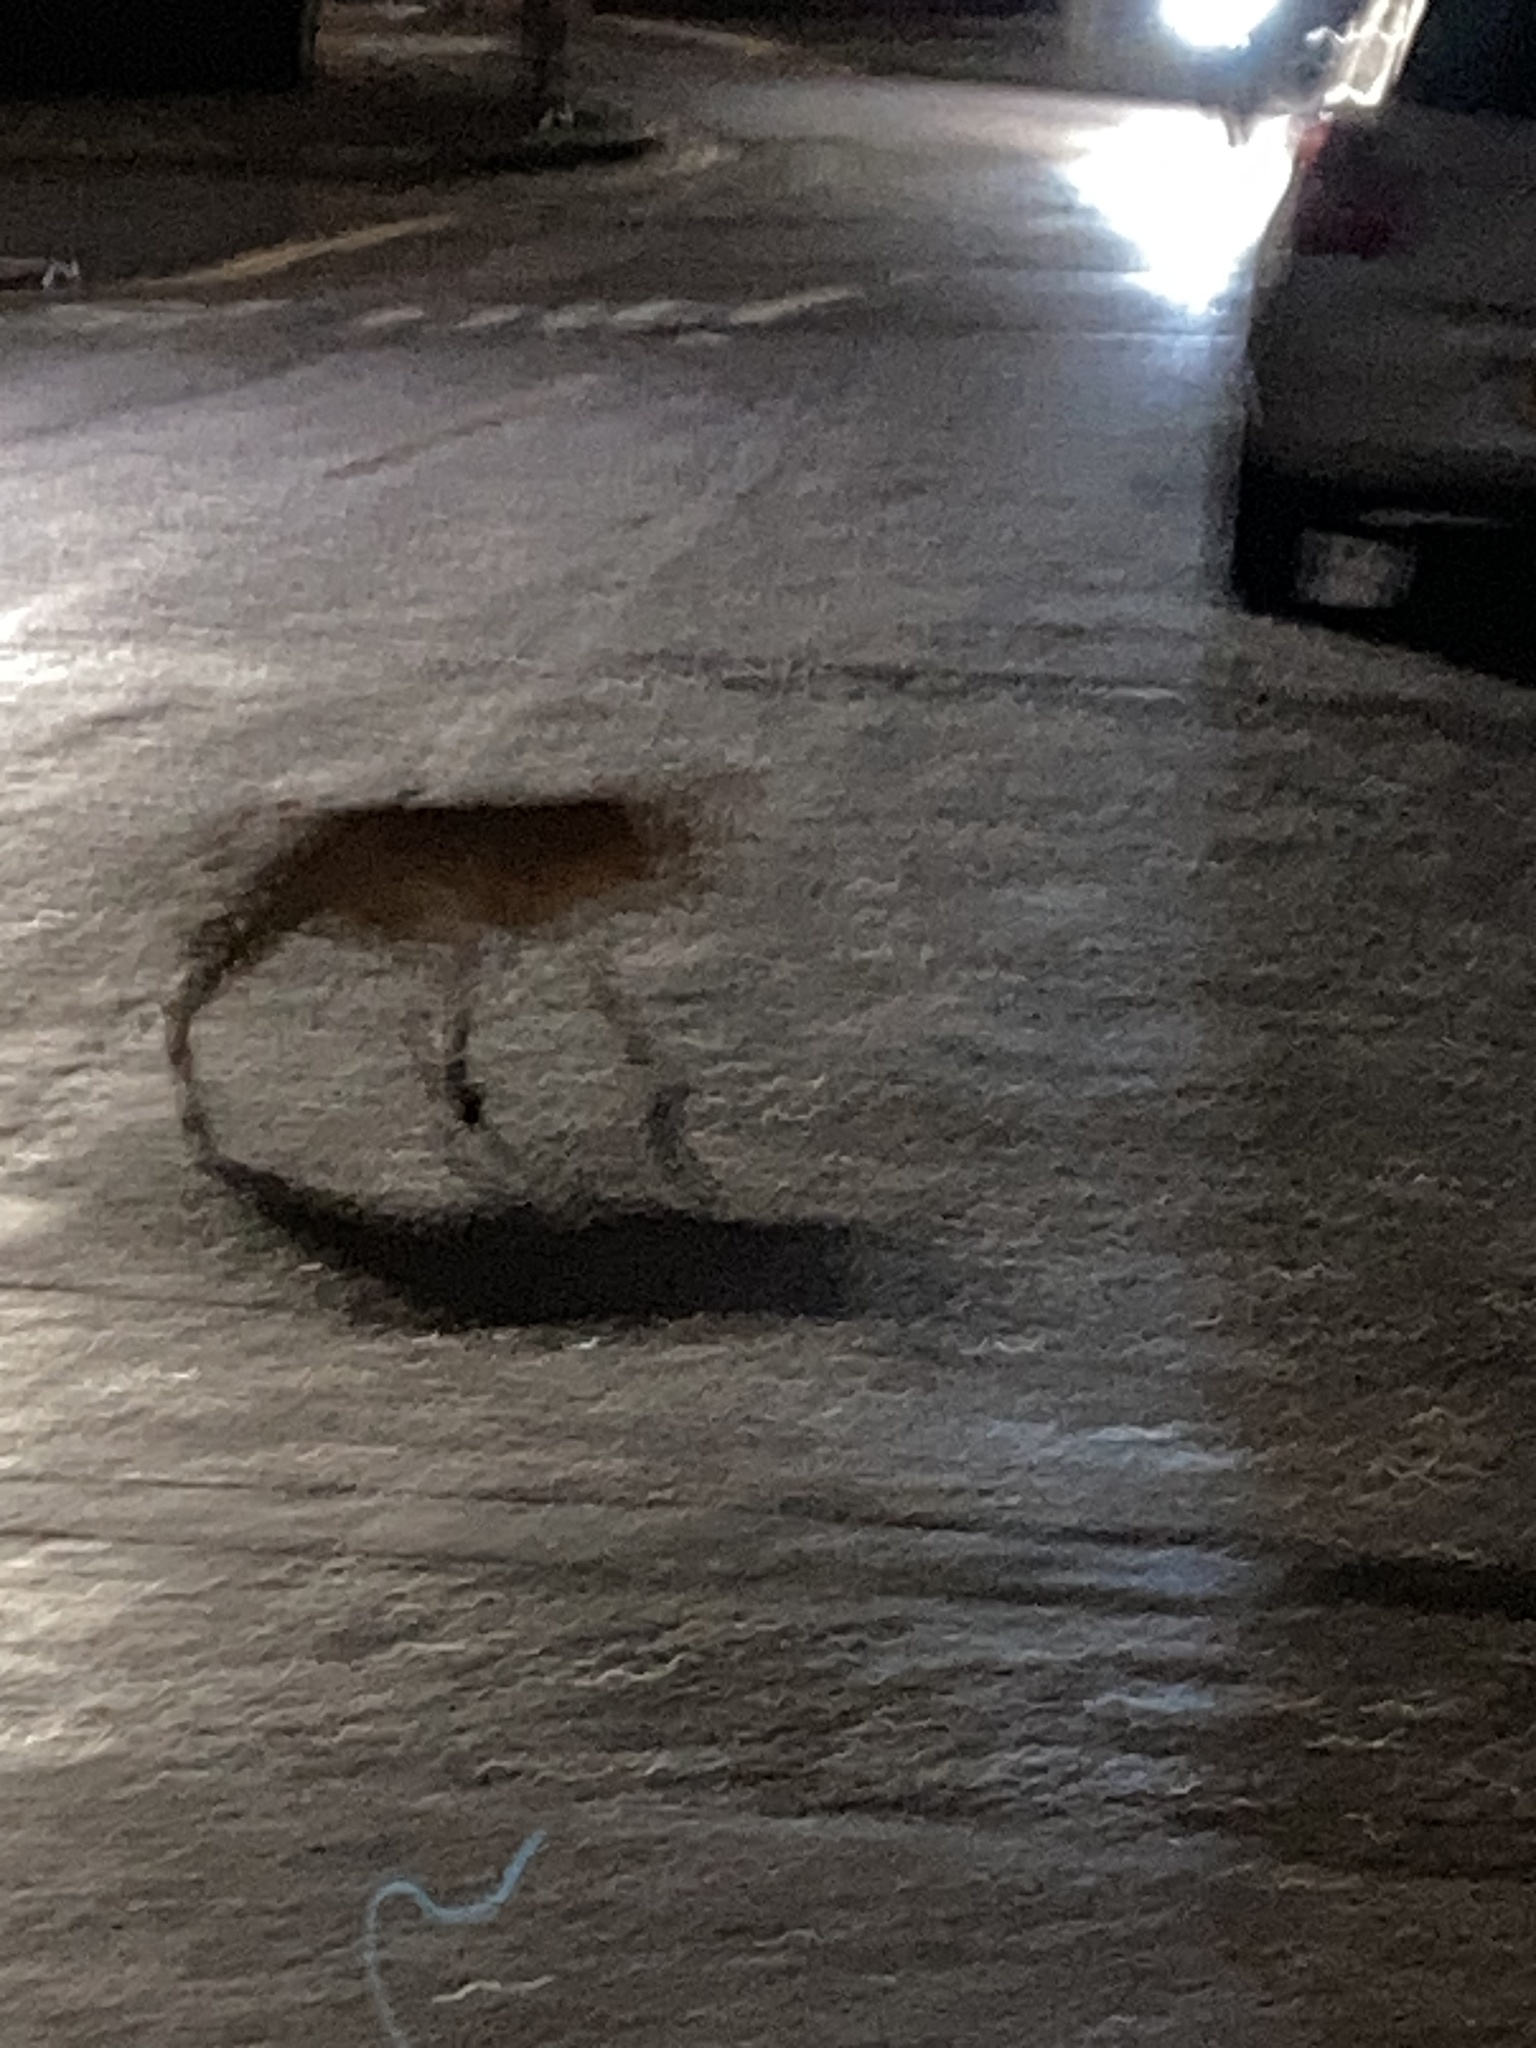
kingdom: Animalia
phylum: Chordata
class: Mammalia
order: Carnivora
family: Canidae
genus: Vulpes
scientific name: Vulpes vulpes
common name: Red fox
